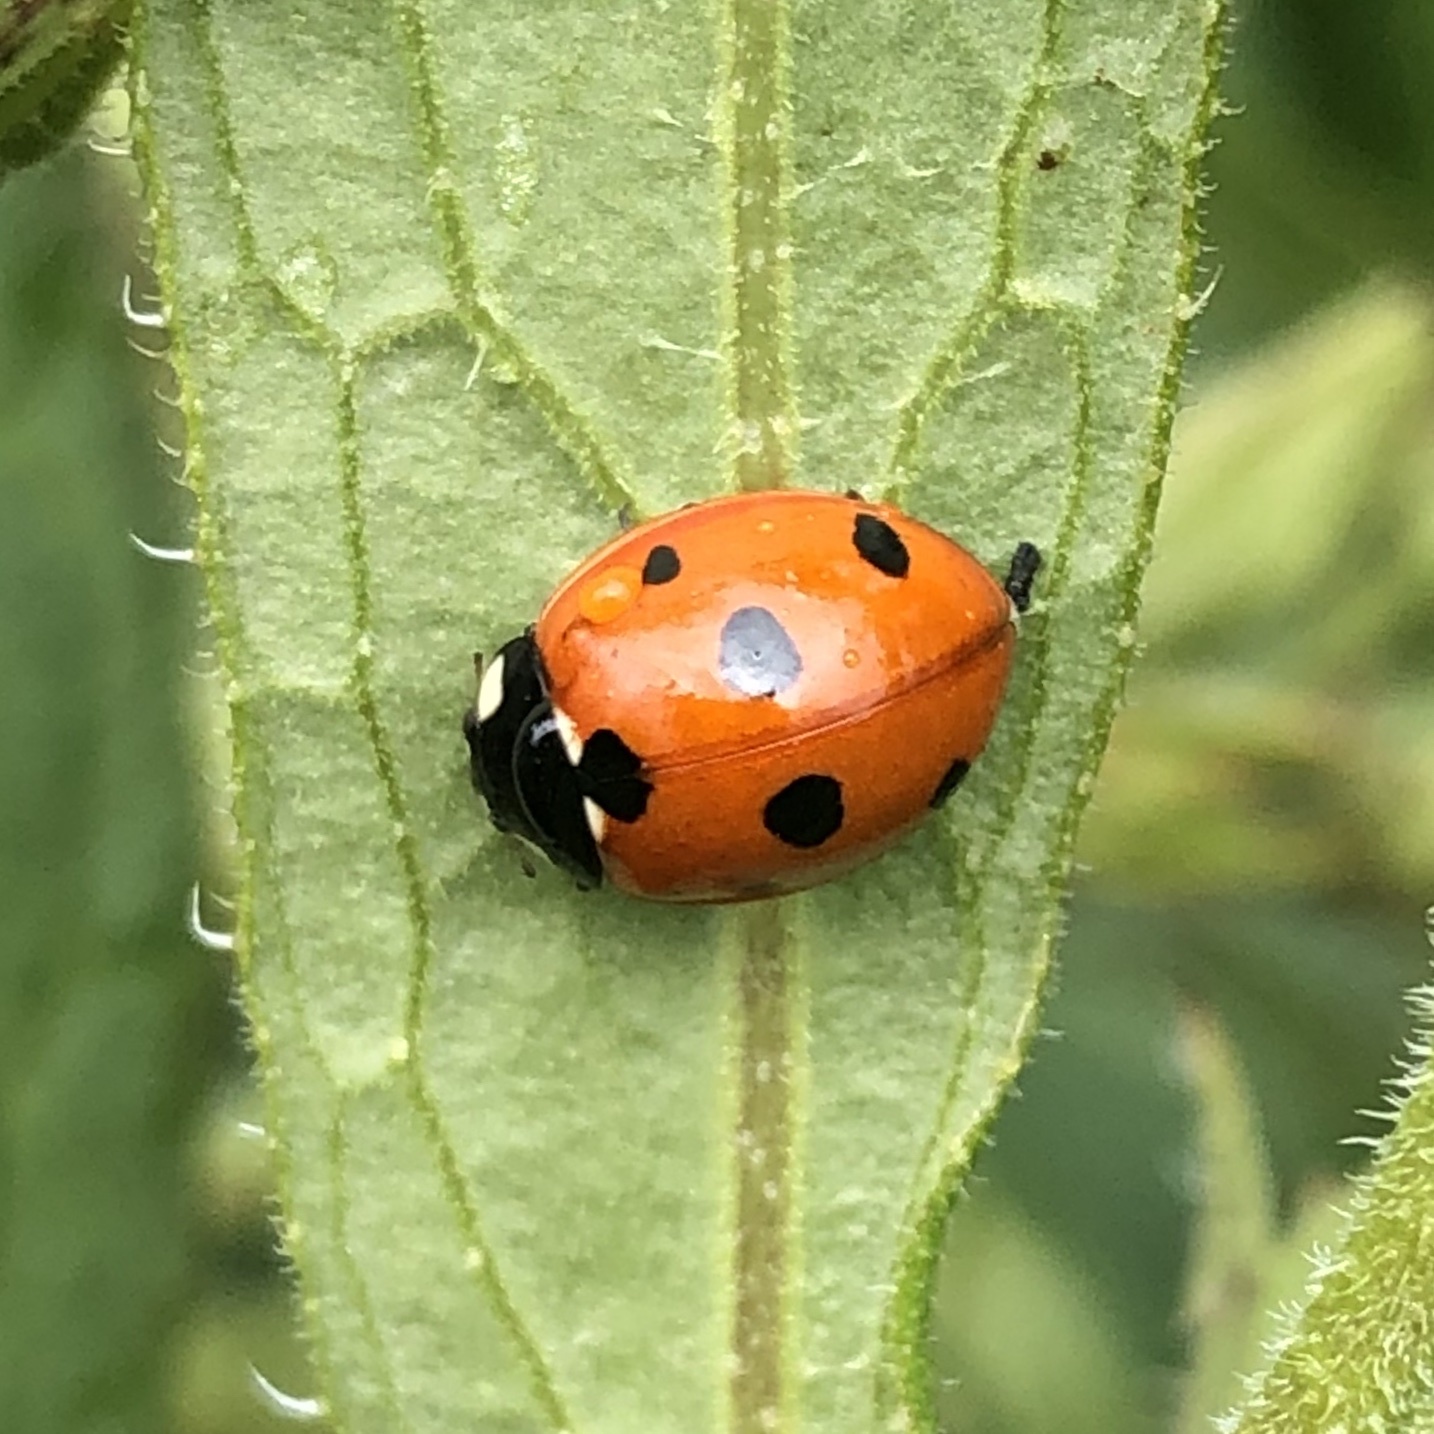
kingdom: Animalia
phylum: Arthropoda
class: Insecta
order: Coleoptera
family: Coccinellidae
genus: Coccinella
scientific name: Coccinella septempunctata
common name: Sevenspotted lady beetle
